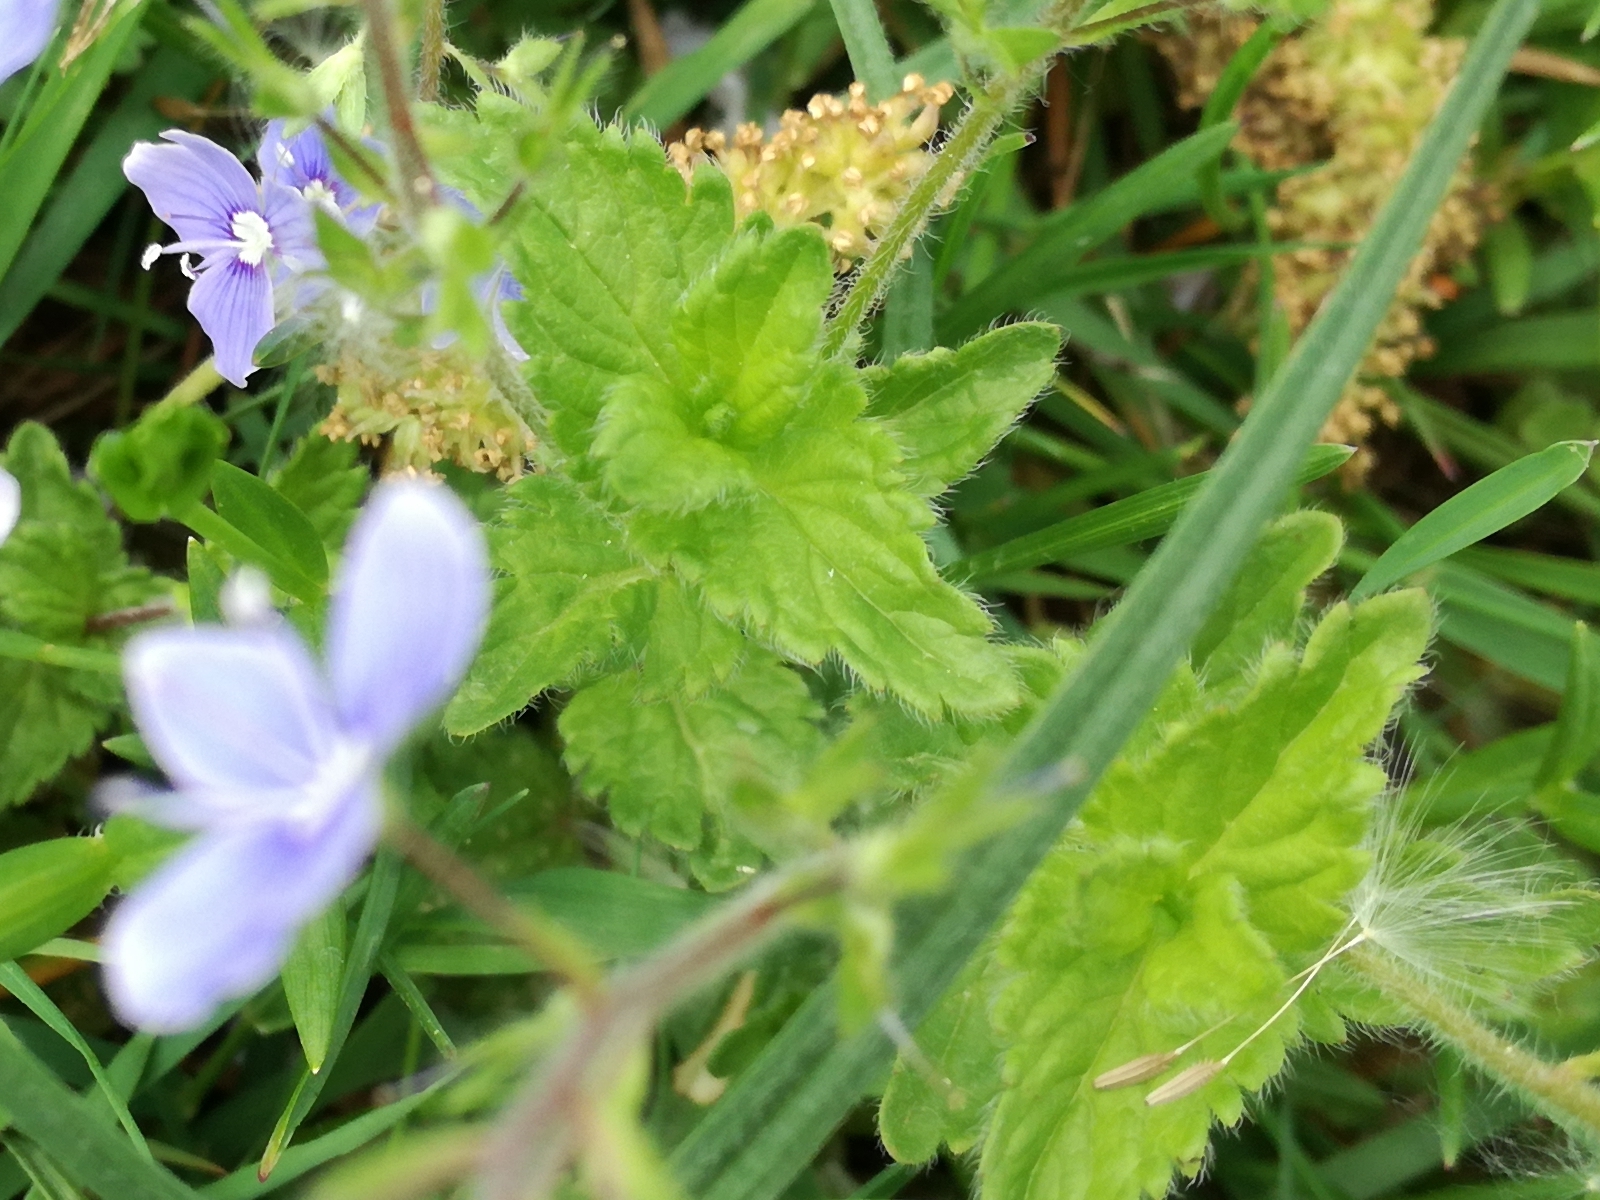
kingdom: Plantae
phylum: Tracheophyta
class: Magnoliopsida
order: Lamiales
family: Plantaginaceae
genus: Veronica
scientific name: Veronica chamaedrys
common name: Germander speedwell
